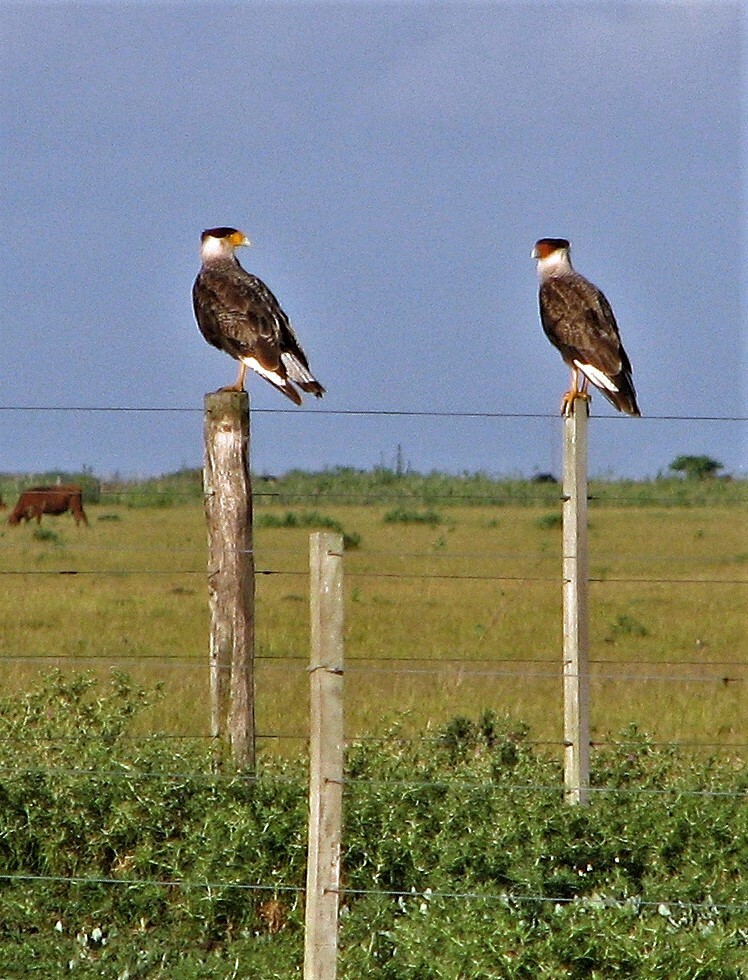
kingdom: Animalia
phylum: Chordata
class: Aves
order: Falconiformes
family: Falconidae
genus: Caracara
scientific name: Caracara plancus
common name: Southern caracara
